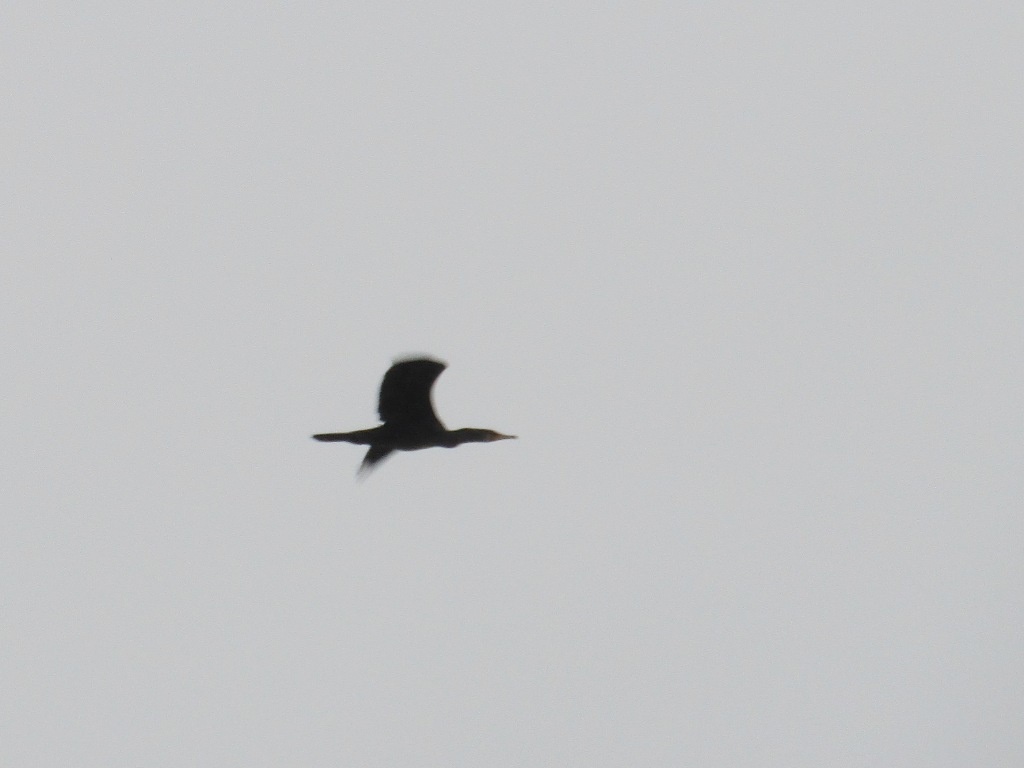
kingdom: Animalia
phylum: Chordata
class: Aves
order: Suliformes
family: Phalacrocoracidae
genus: Phalacrocorax
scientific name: Phalacrocorax carbo
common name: Great cormorant
